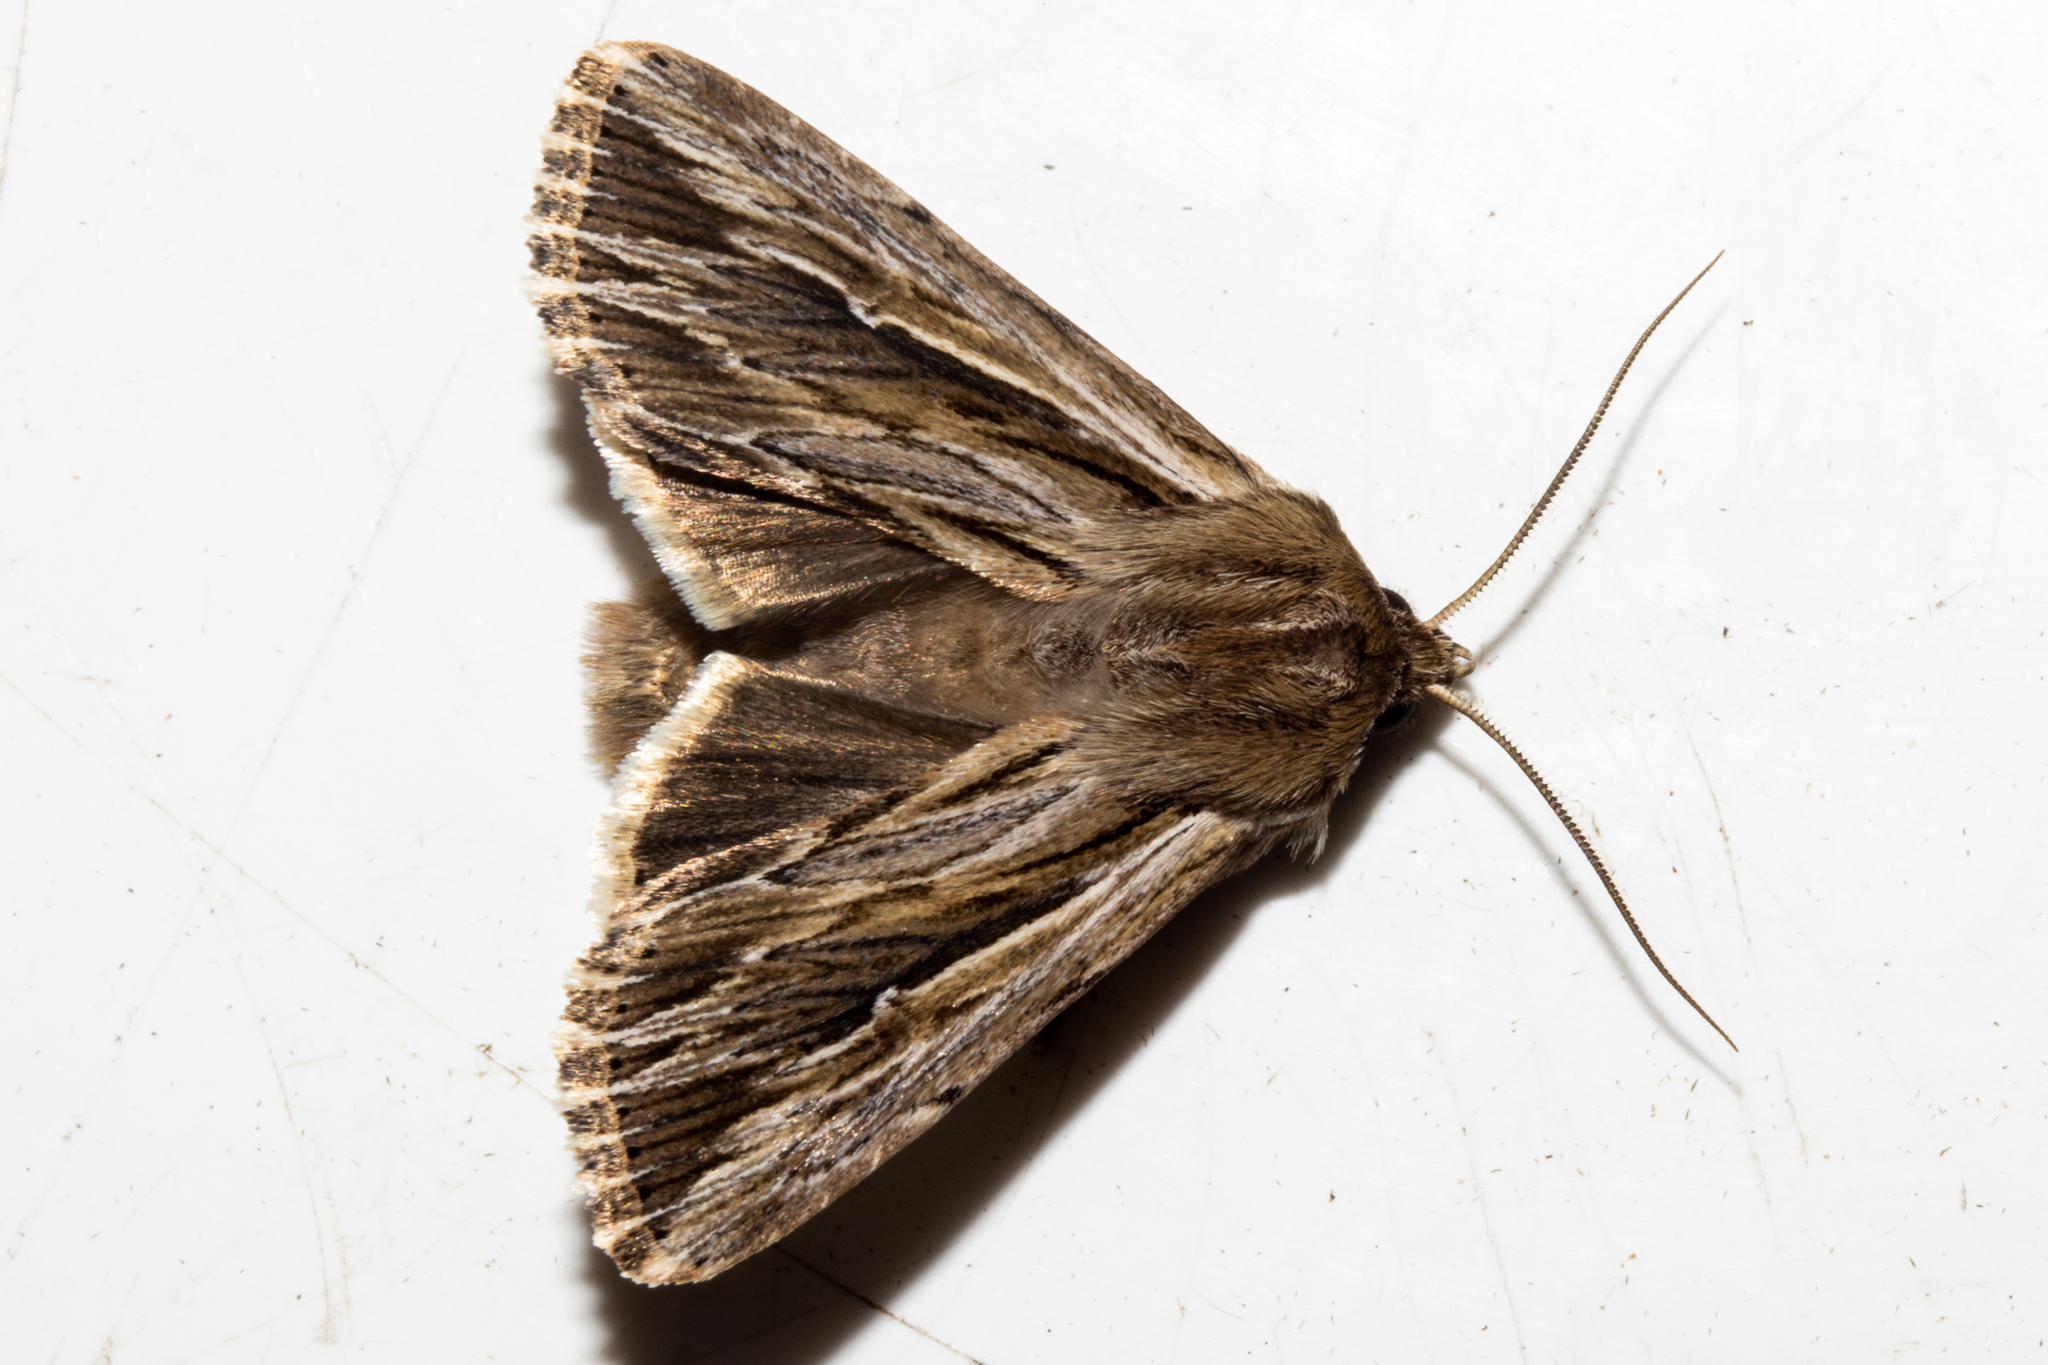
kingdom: Animalia
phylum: Arthropoda
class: Insecta
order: Lepidoptera
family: Noctuidae
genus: Persectania
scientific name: Persectania aversa
